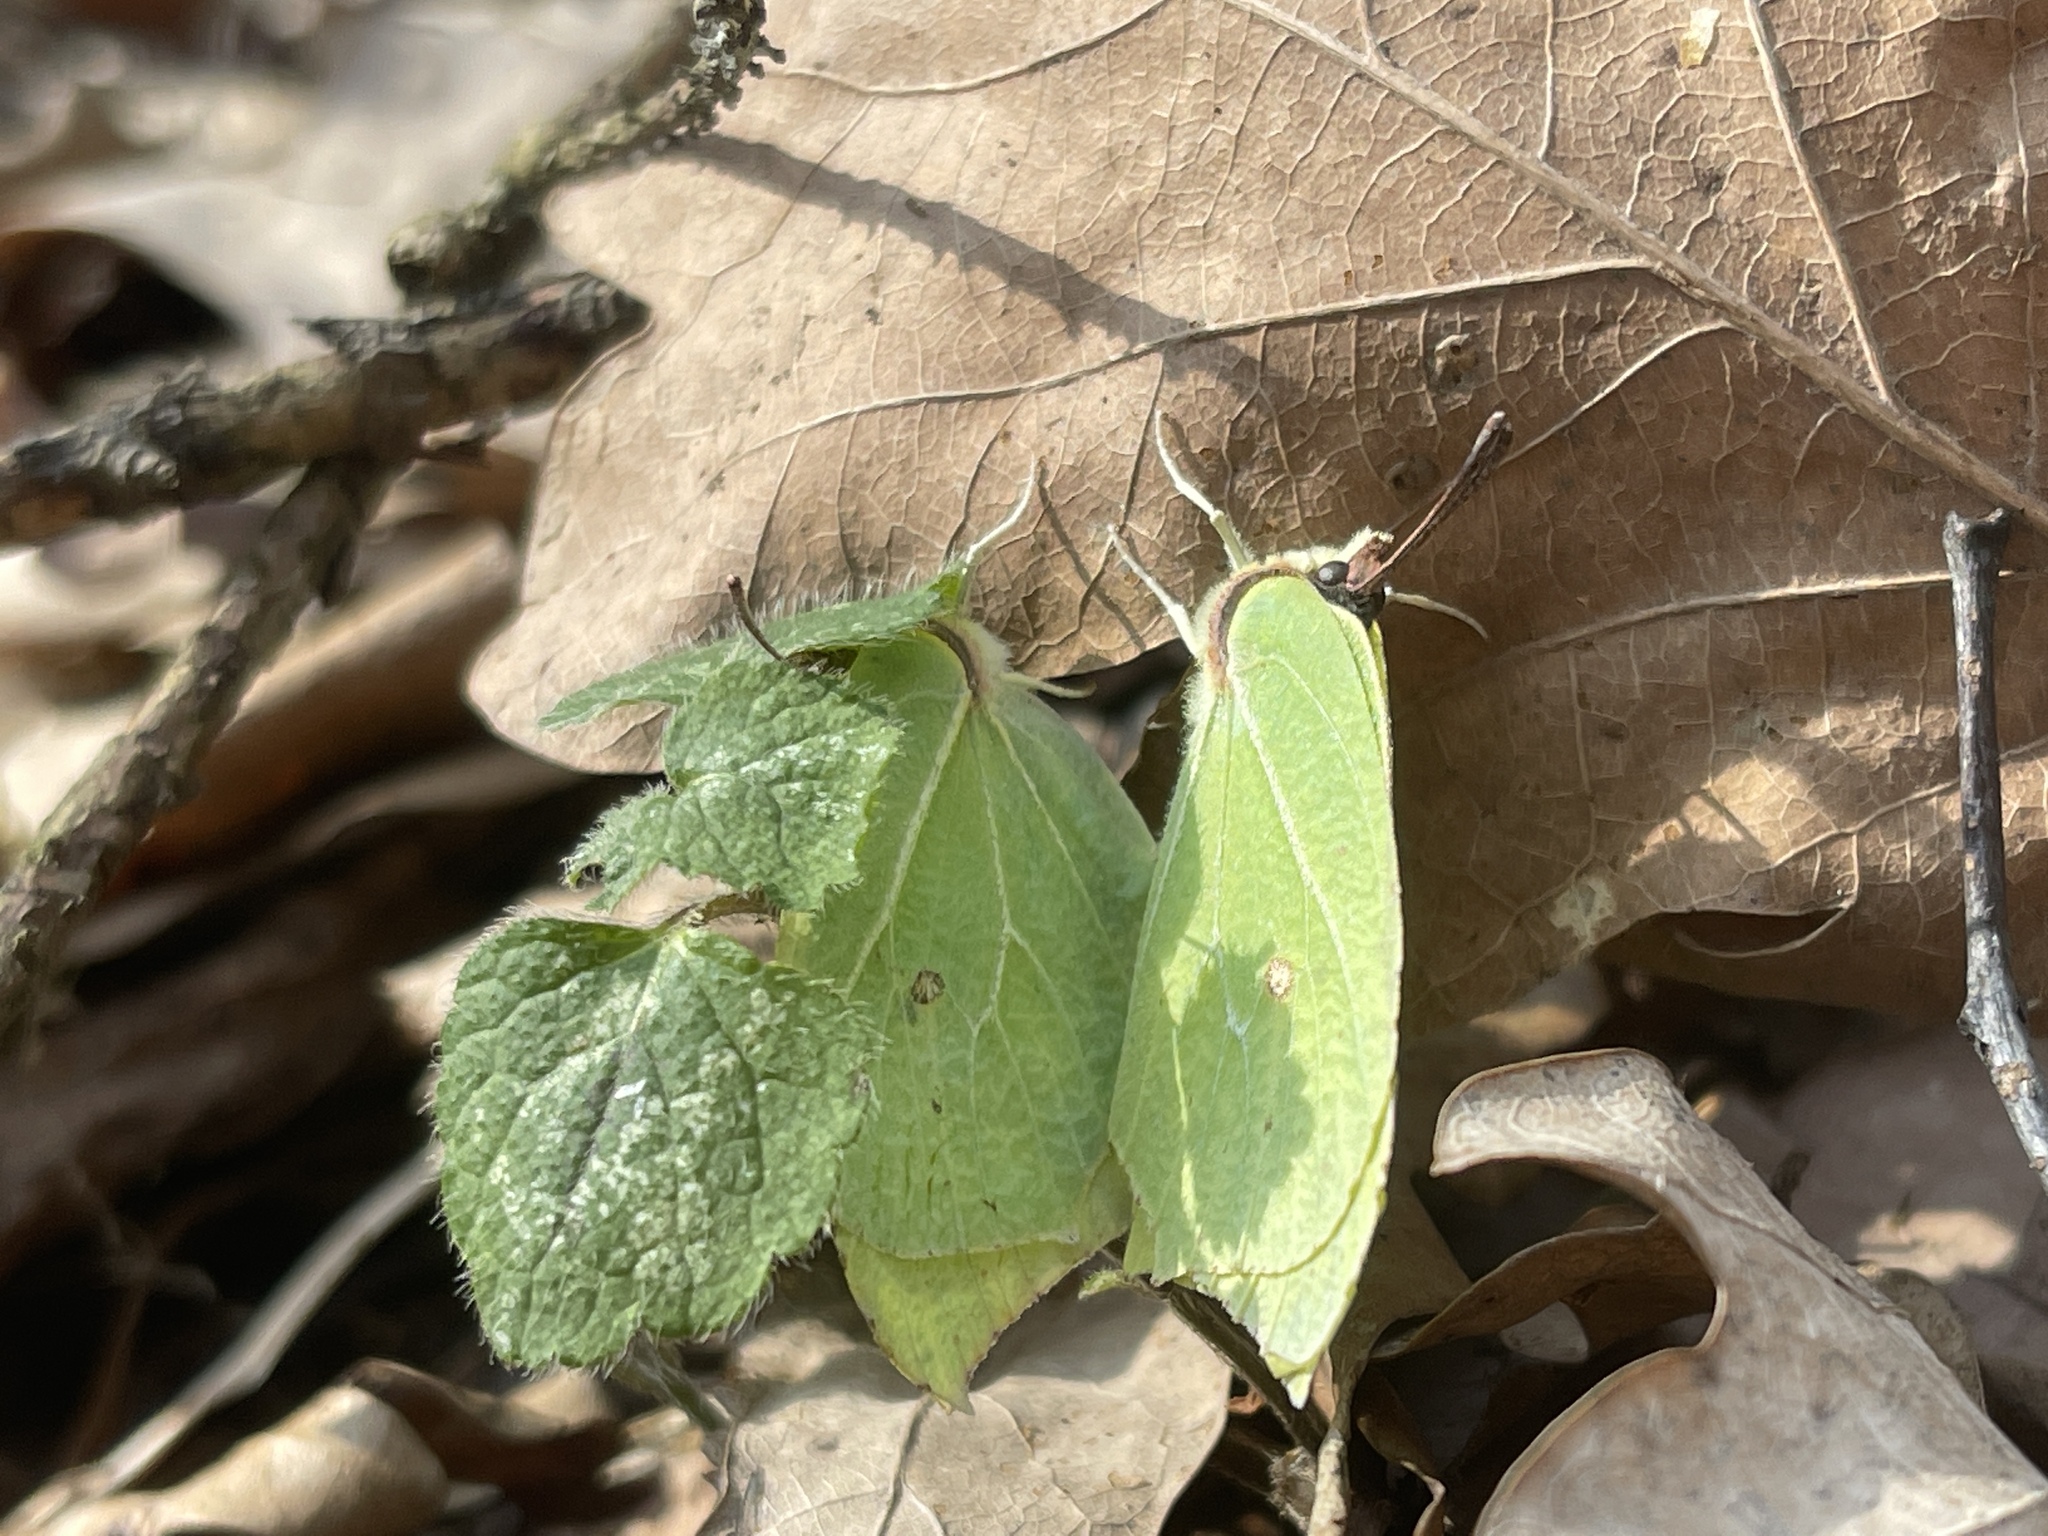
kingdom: Animalia
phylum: Arthropoda
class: Insecta
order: Lepidoptera
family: Pieridae
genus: Gonepteryx
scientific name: Gonepteryx rhamni
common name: Brimstone
